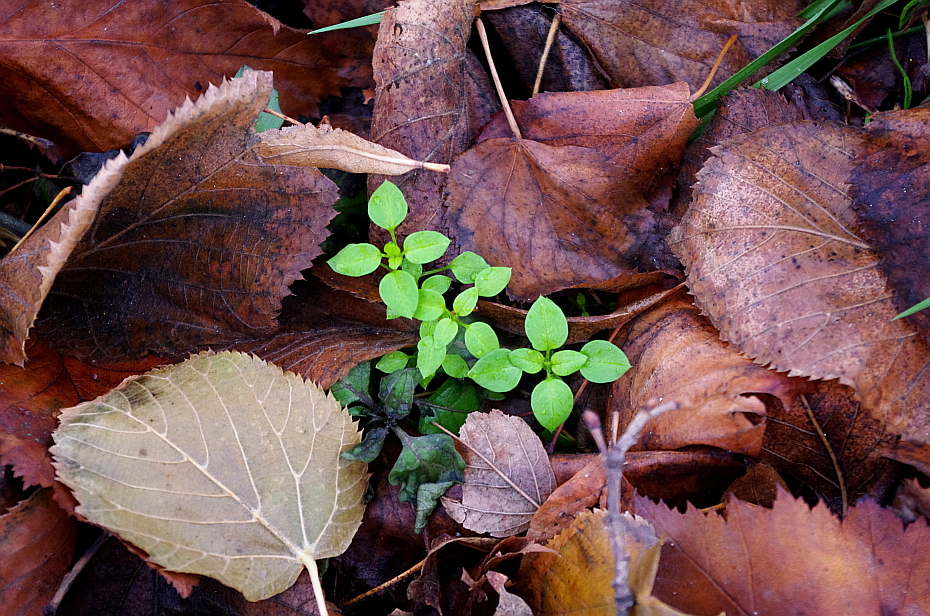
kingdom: Plantae
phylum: Tracheophyta
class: Magnoliopsida
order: Caryophyllales
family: Caryophyllaceae
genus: Stellaria
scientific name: Stellaria media
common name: Common chickweed
